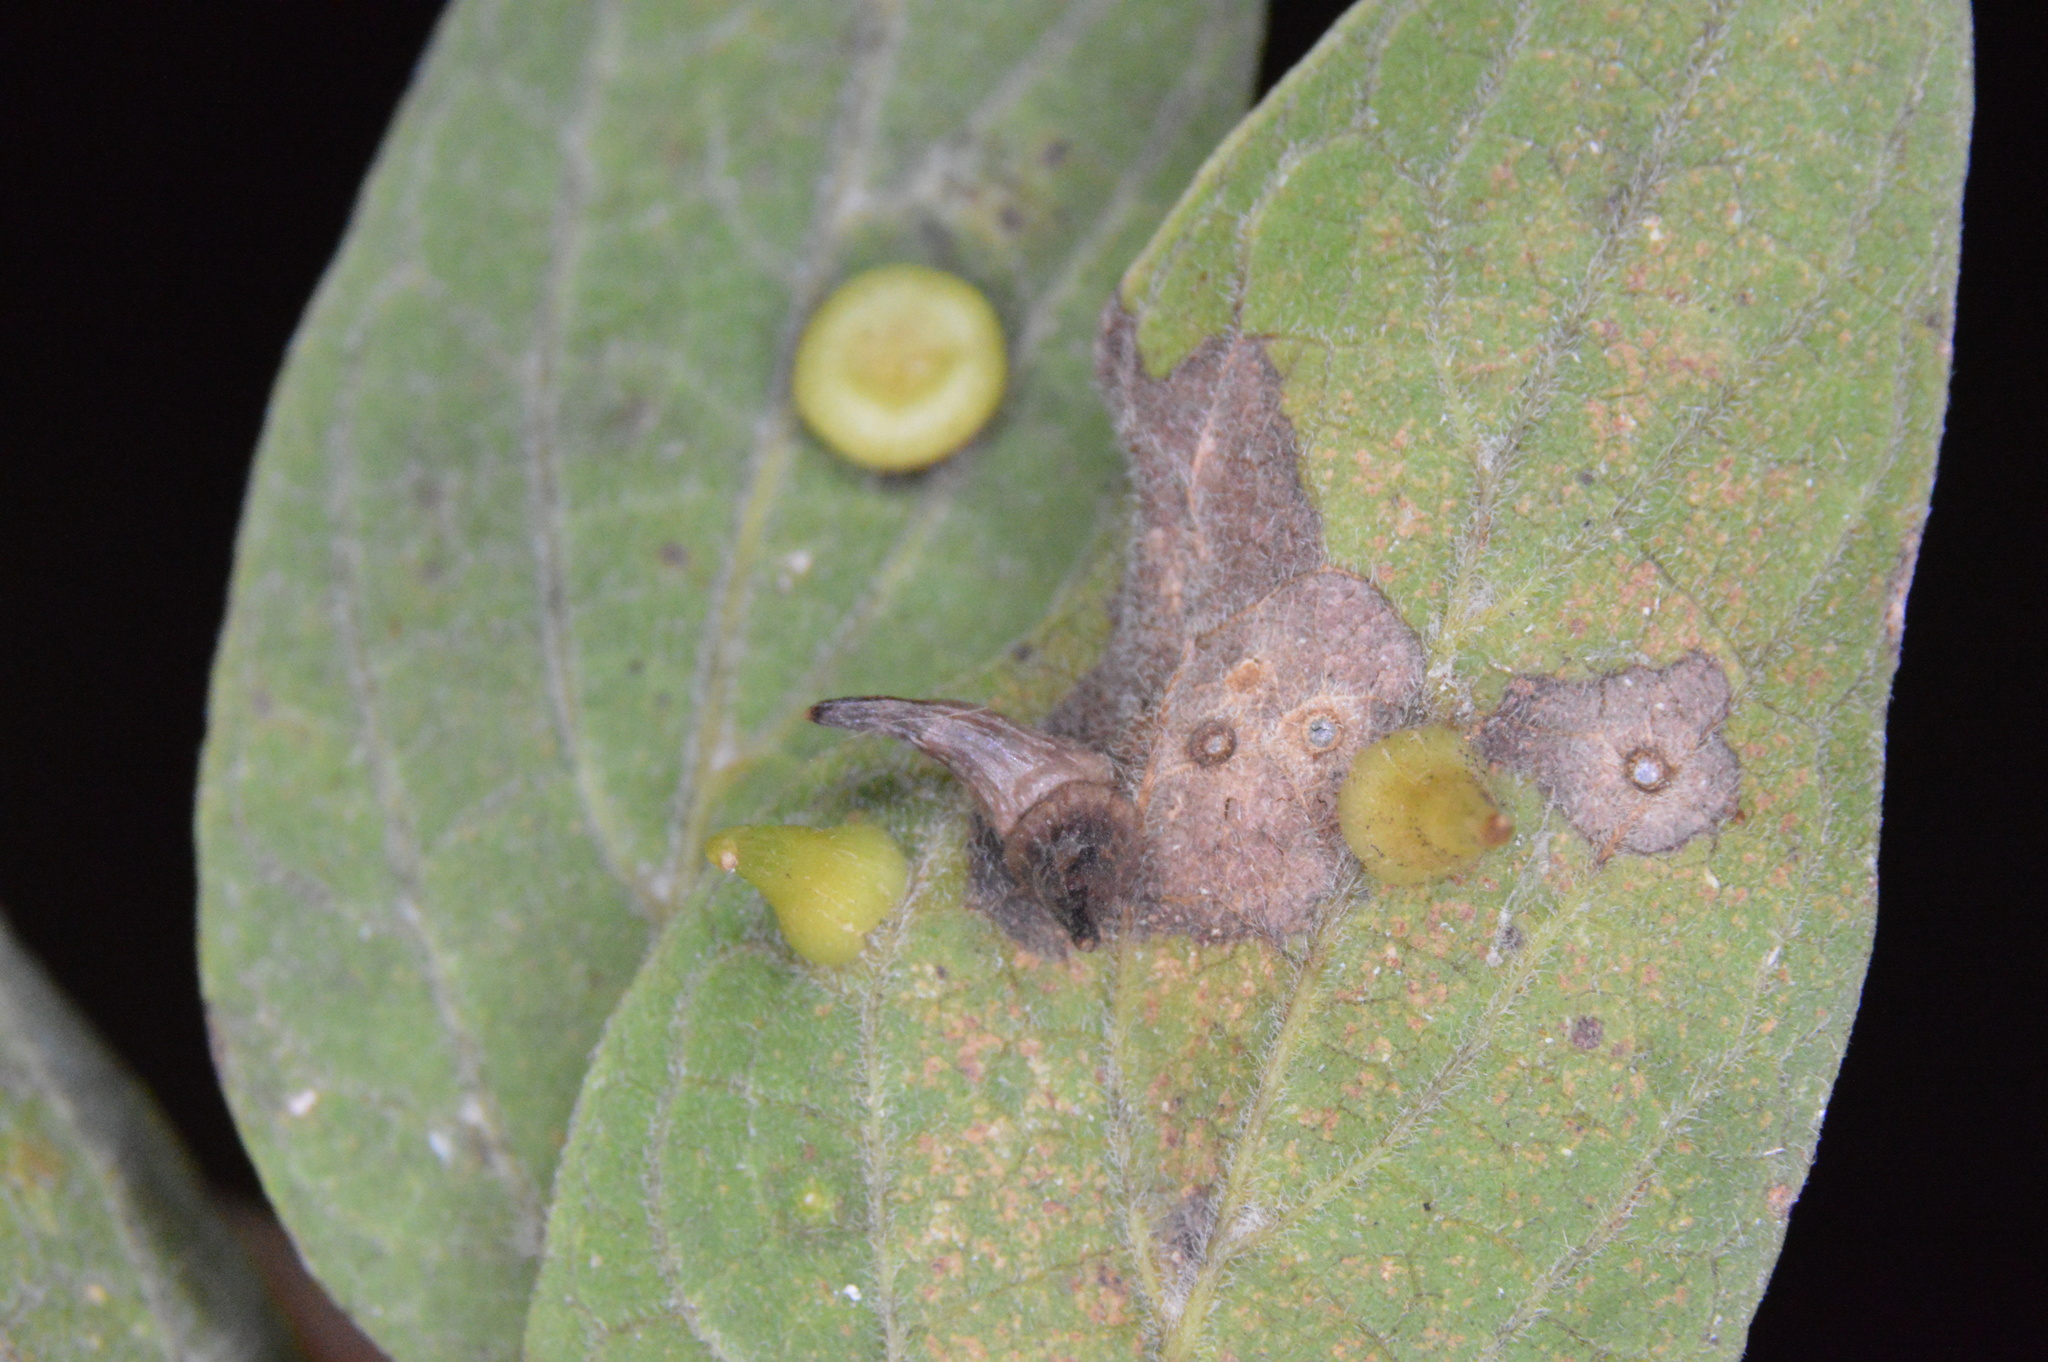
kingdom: Animalia
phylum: Arthropoda
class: Insecta
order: Diptera
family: Cecidomyiidae
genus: Celticecis
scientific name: Celticecis subulata
